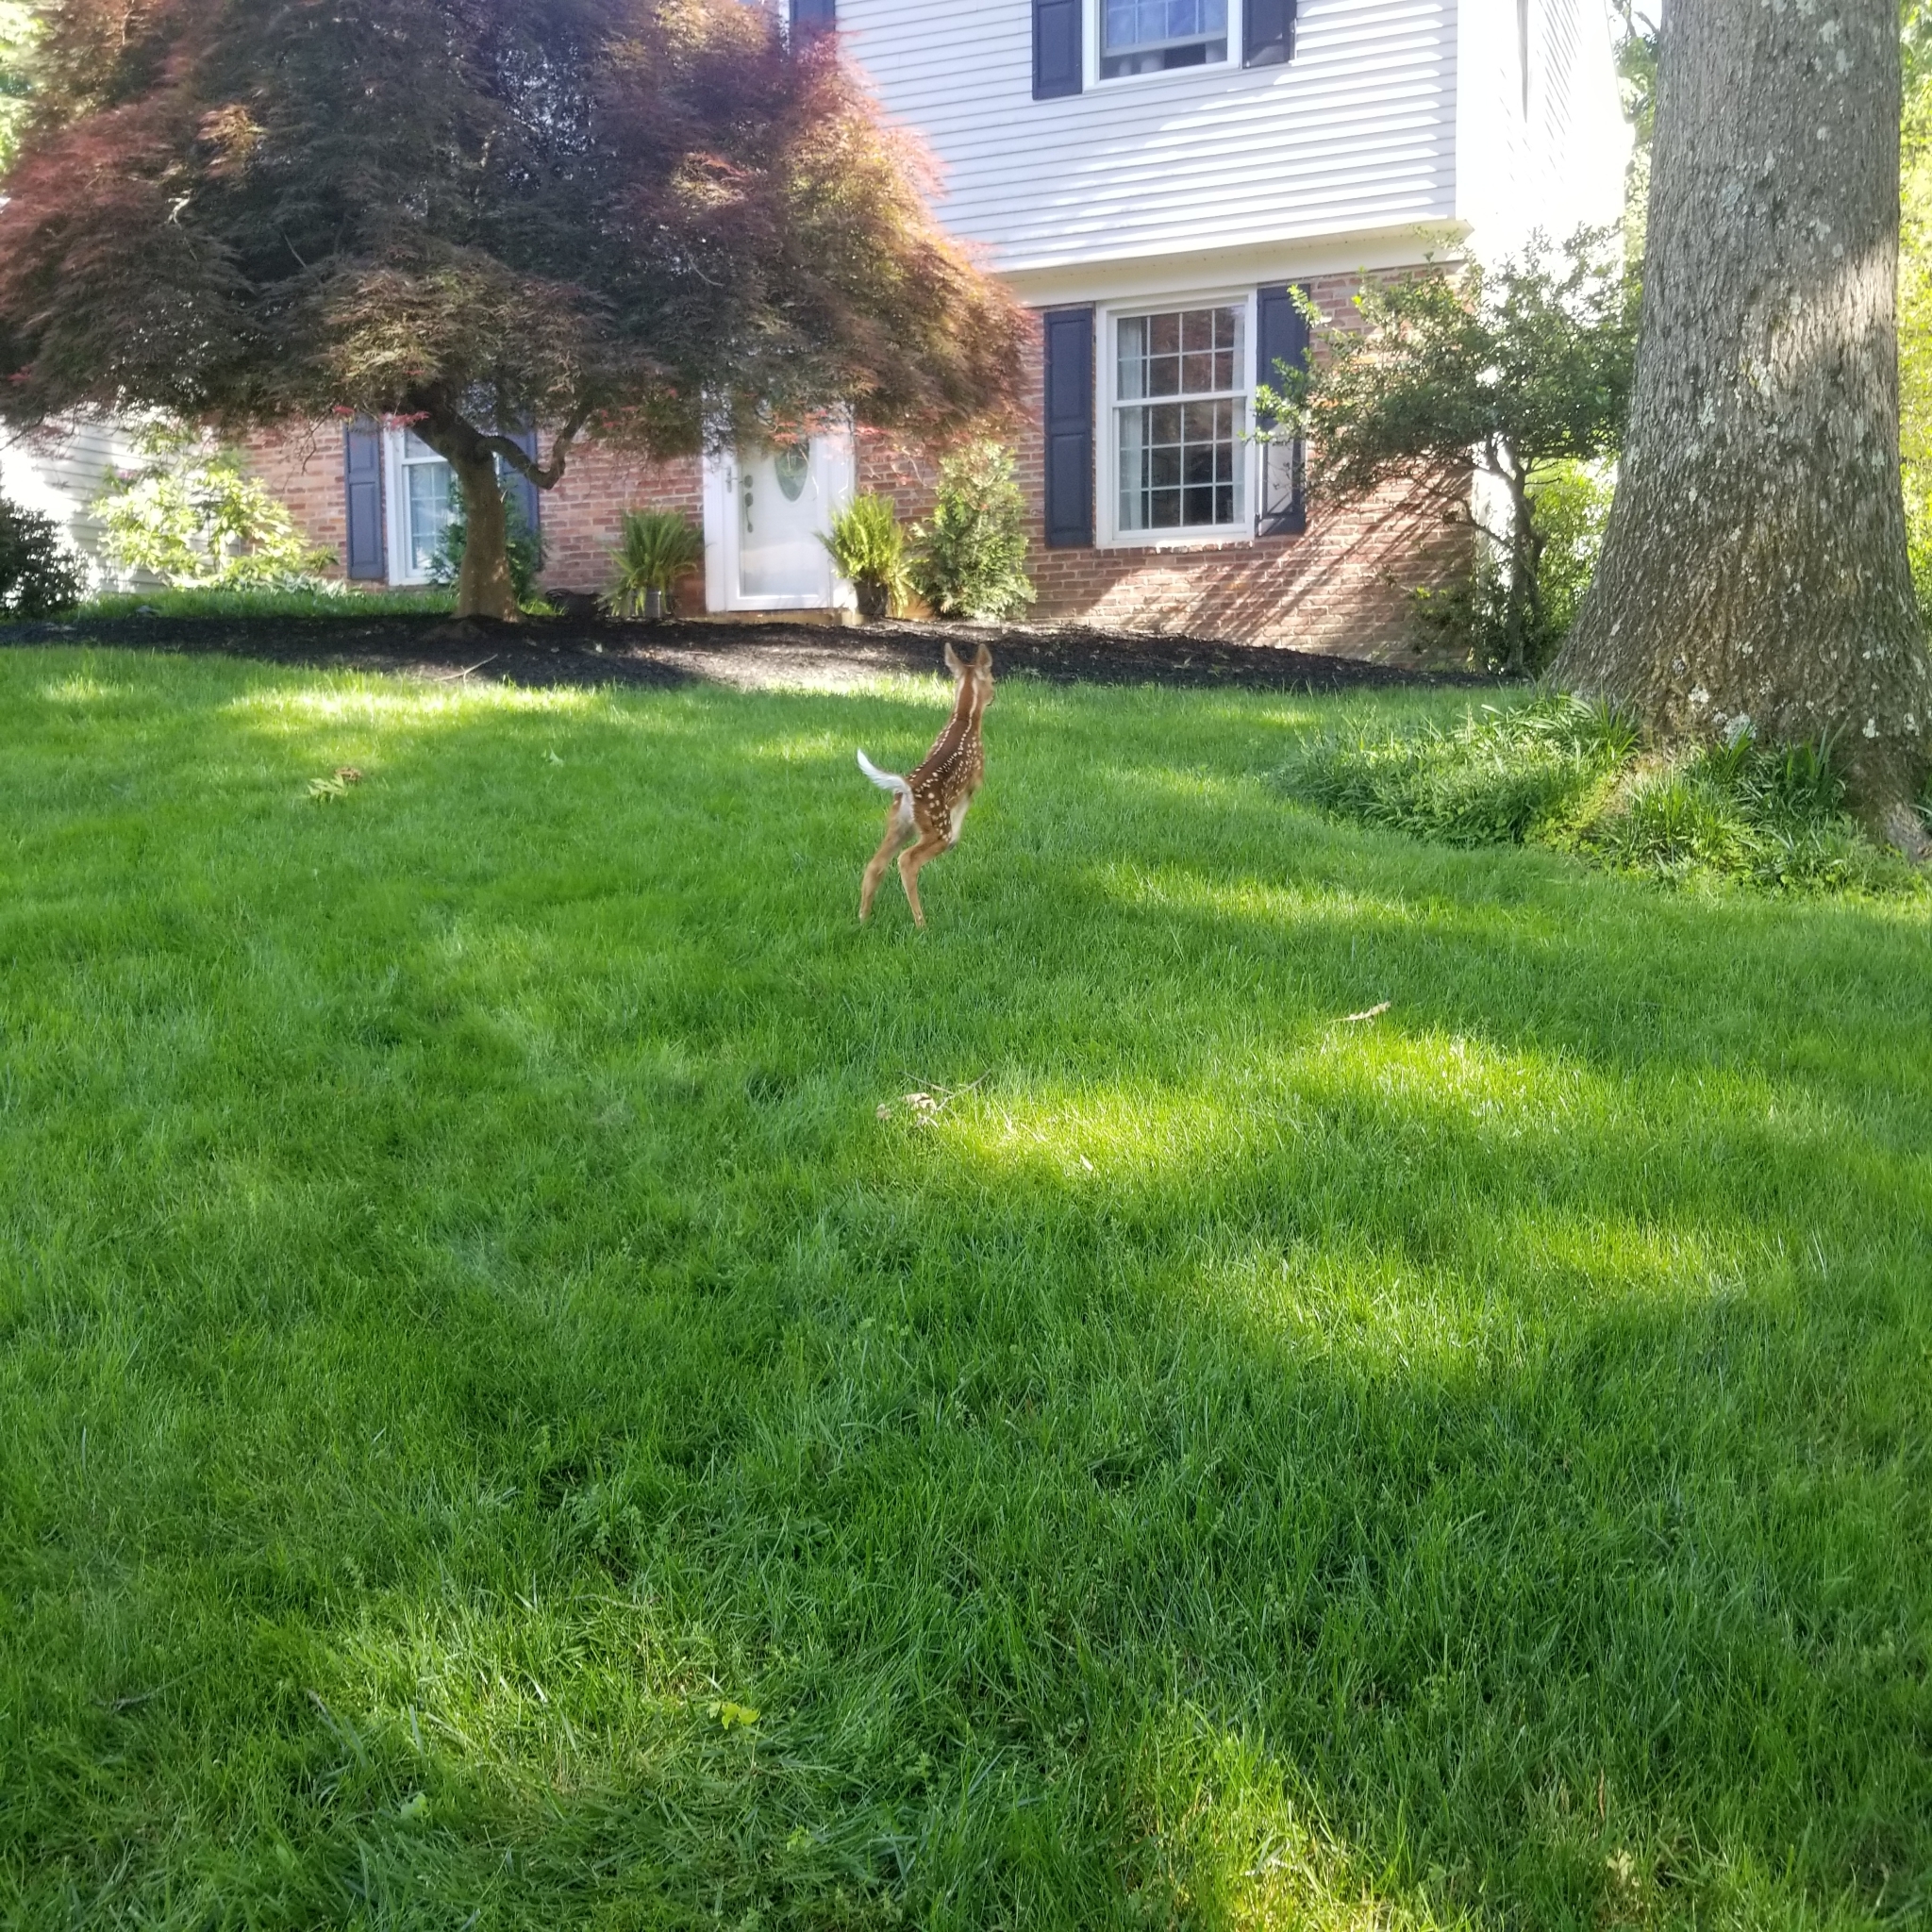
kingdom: Animalia
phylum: Chordata
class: Mammalia
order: Artiodactyla
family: Cervidae
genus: Odocoileus
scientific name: Odocoileus virginianus
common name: White-tailed deer
